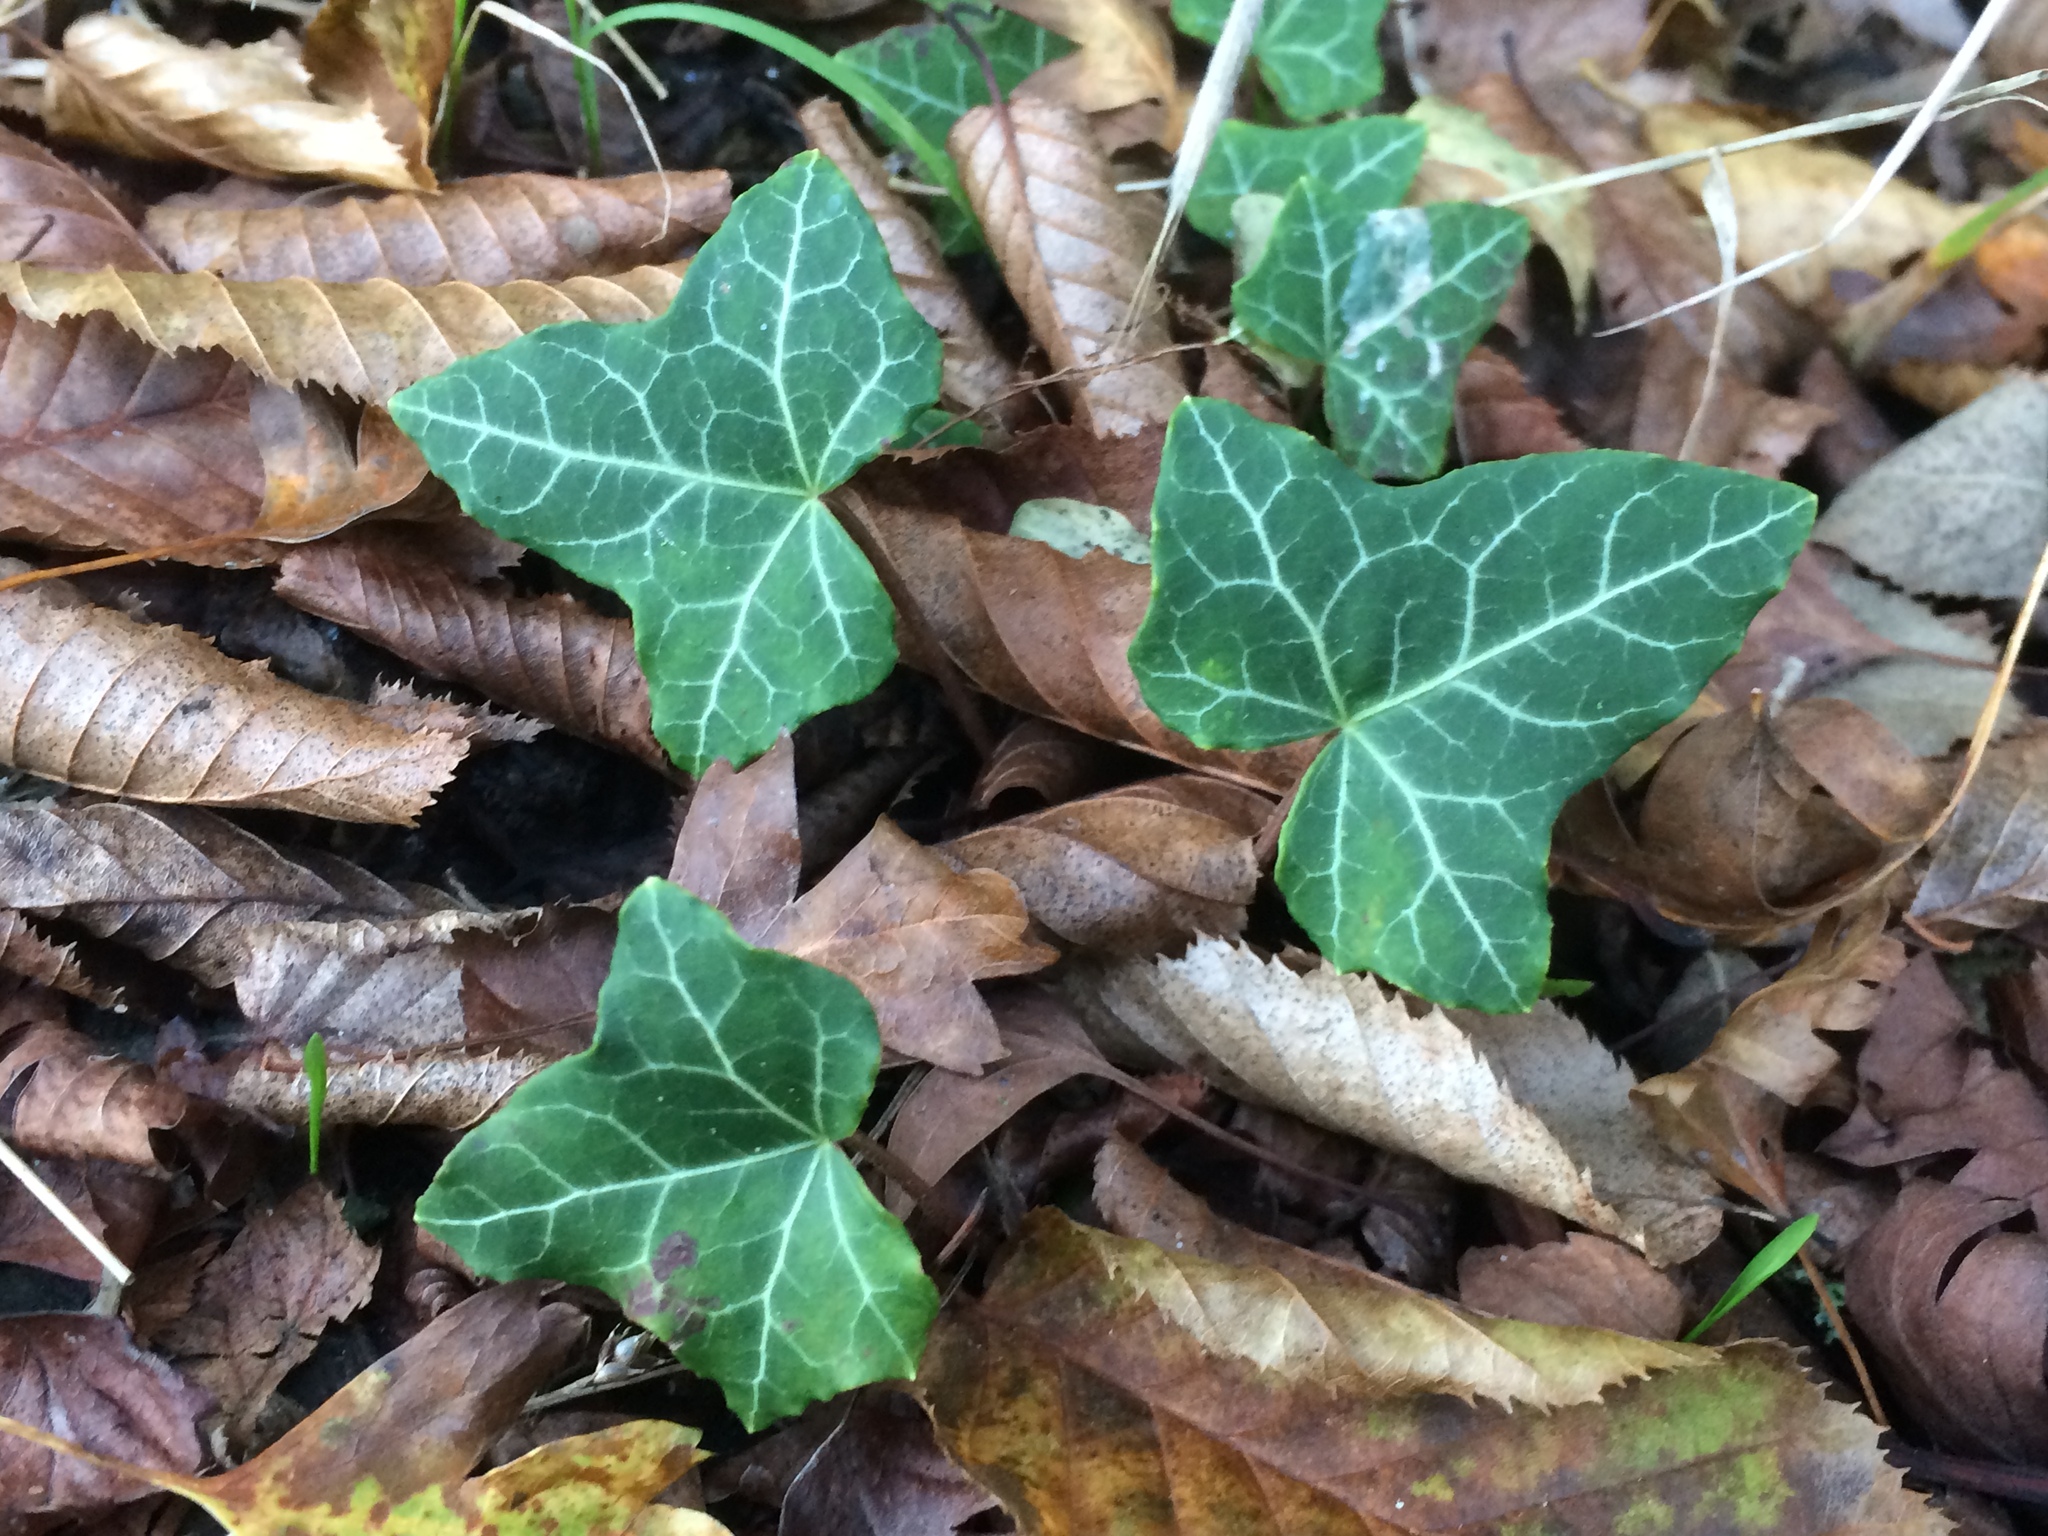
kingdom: Plantae
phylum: Tracheophyta
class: Magnoliopsida
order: Apiales
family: Araliaceae
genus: Hedera
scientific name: Hedera helix
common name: Ivy
